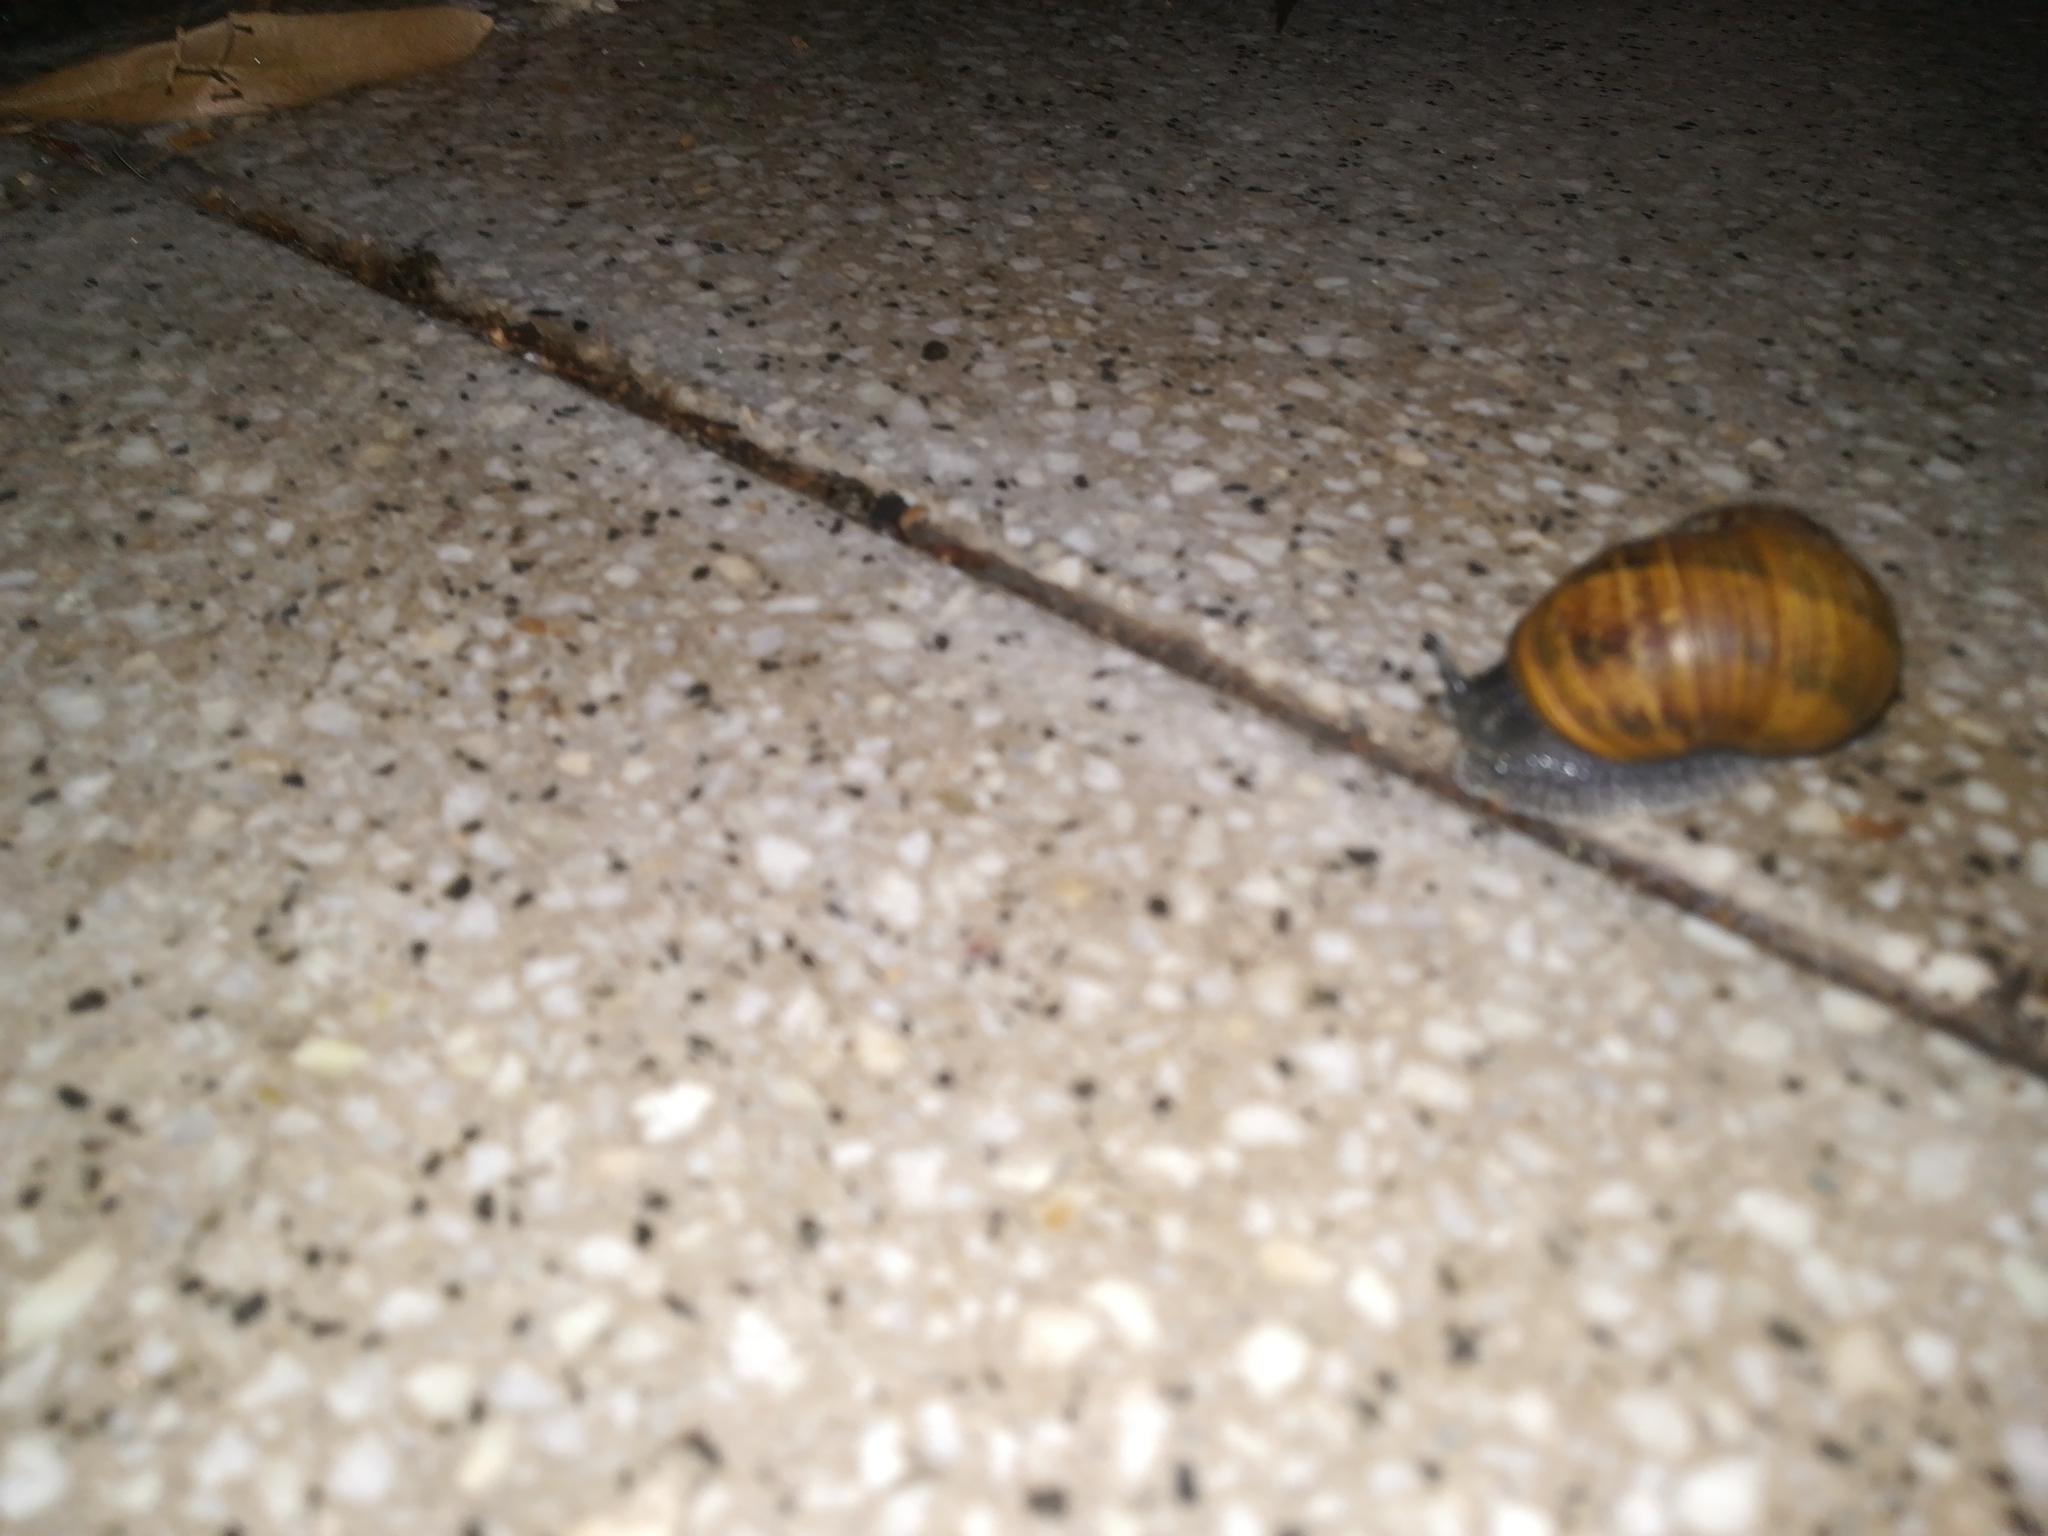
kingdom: Animalia
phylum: Mollusca
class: Gastropoda
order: Stylommatophora
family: Helicidae
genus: Cornu
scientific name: Cornu aspersum
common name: Brown garden snail
